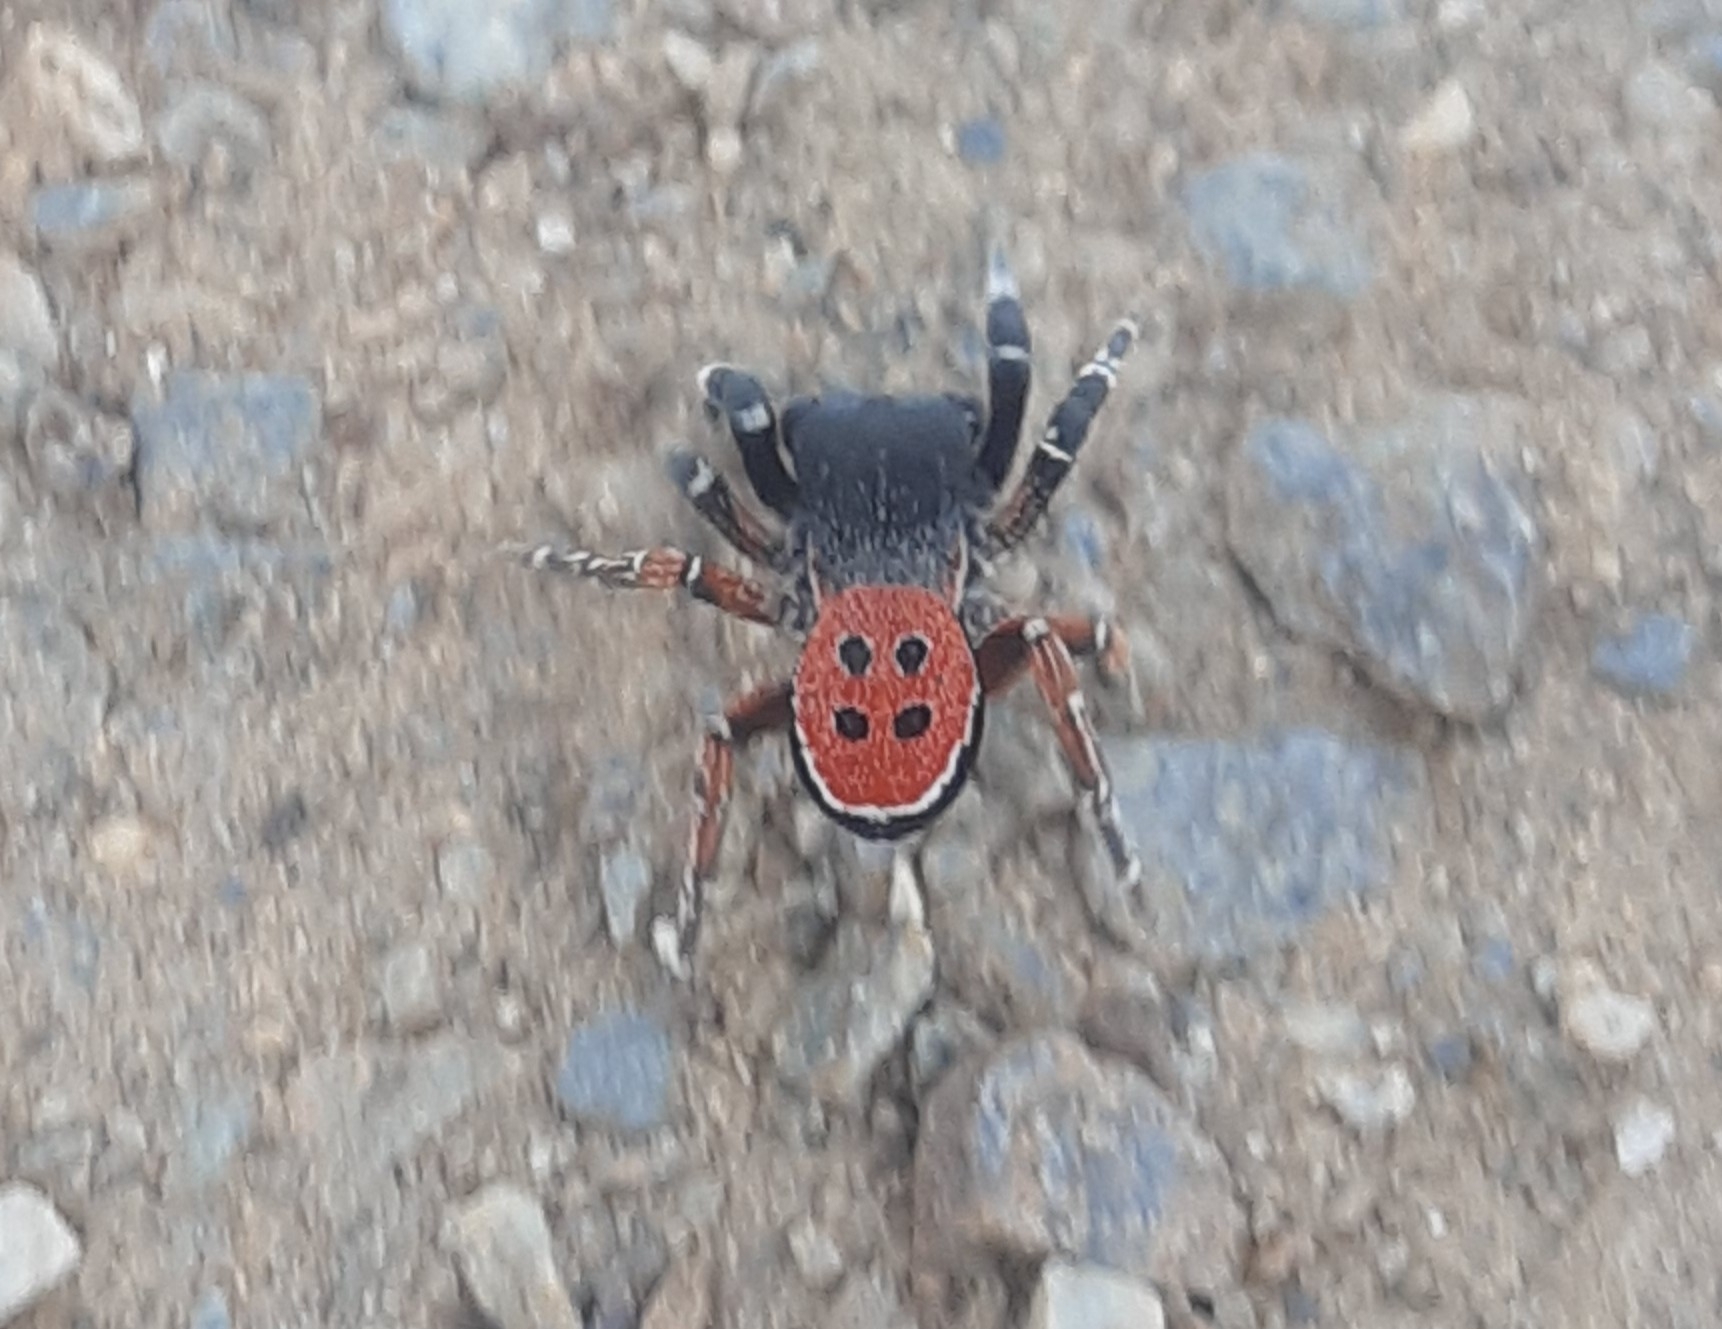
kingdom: Animalia
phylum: Arthropoda
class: Arachnida
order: Araneae
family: Eresidae
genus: Eresus
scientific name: Eresus kollari
